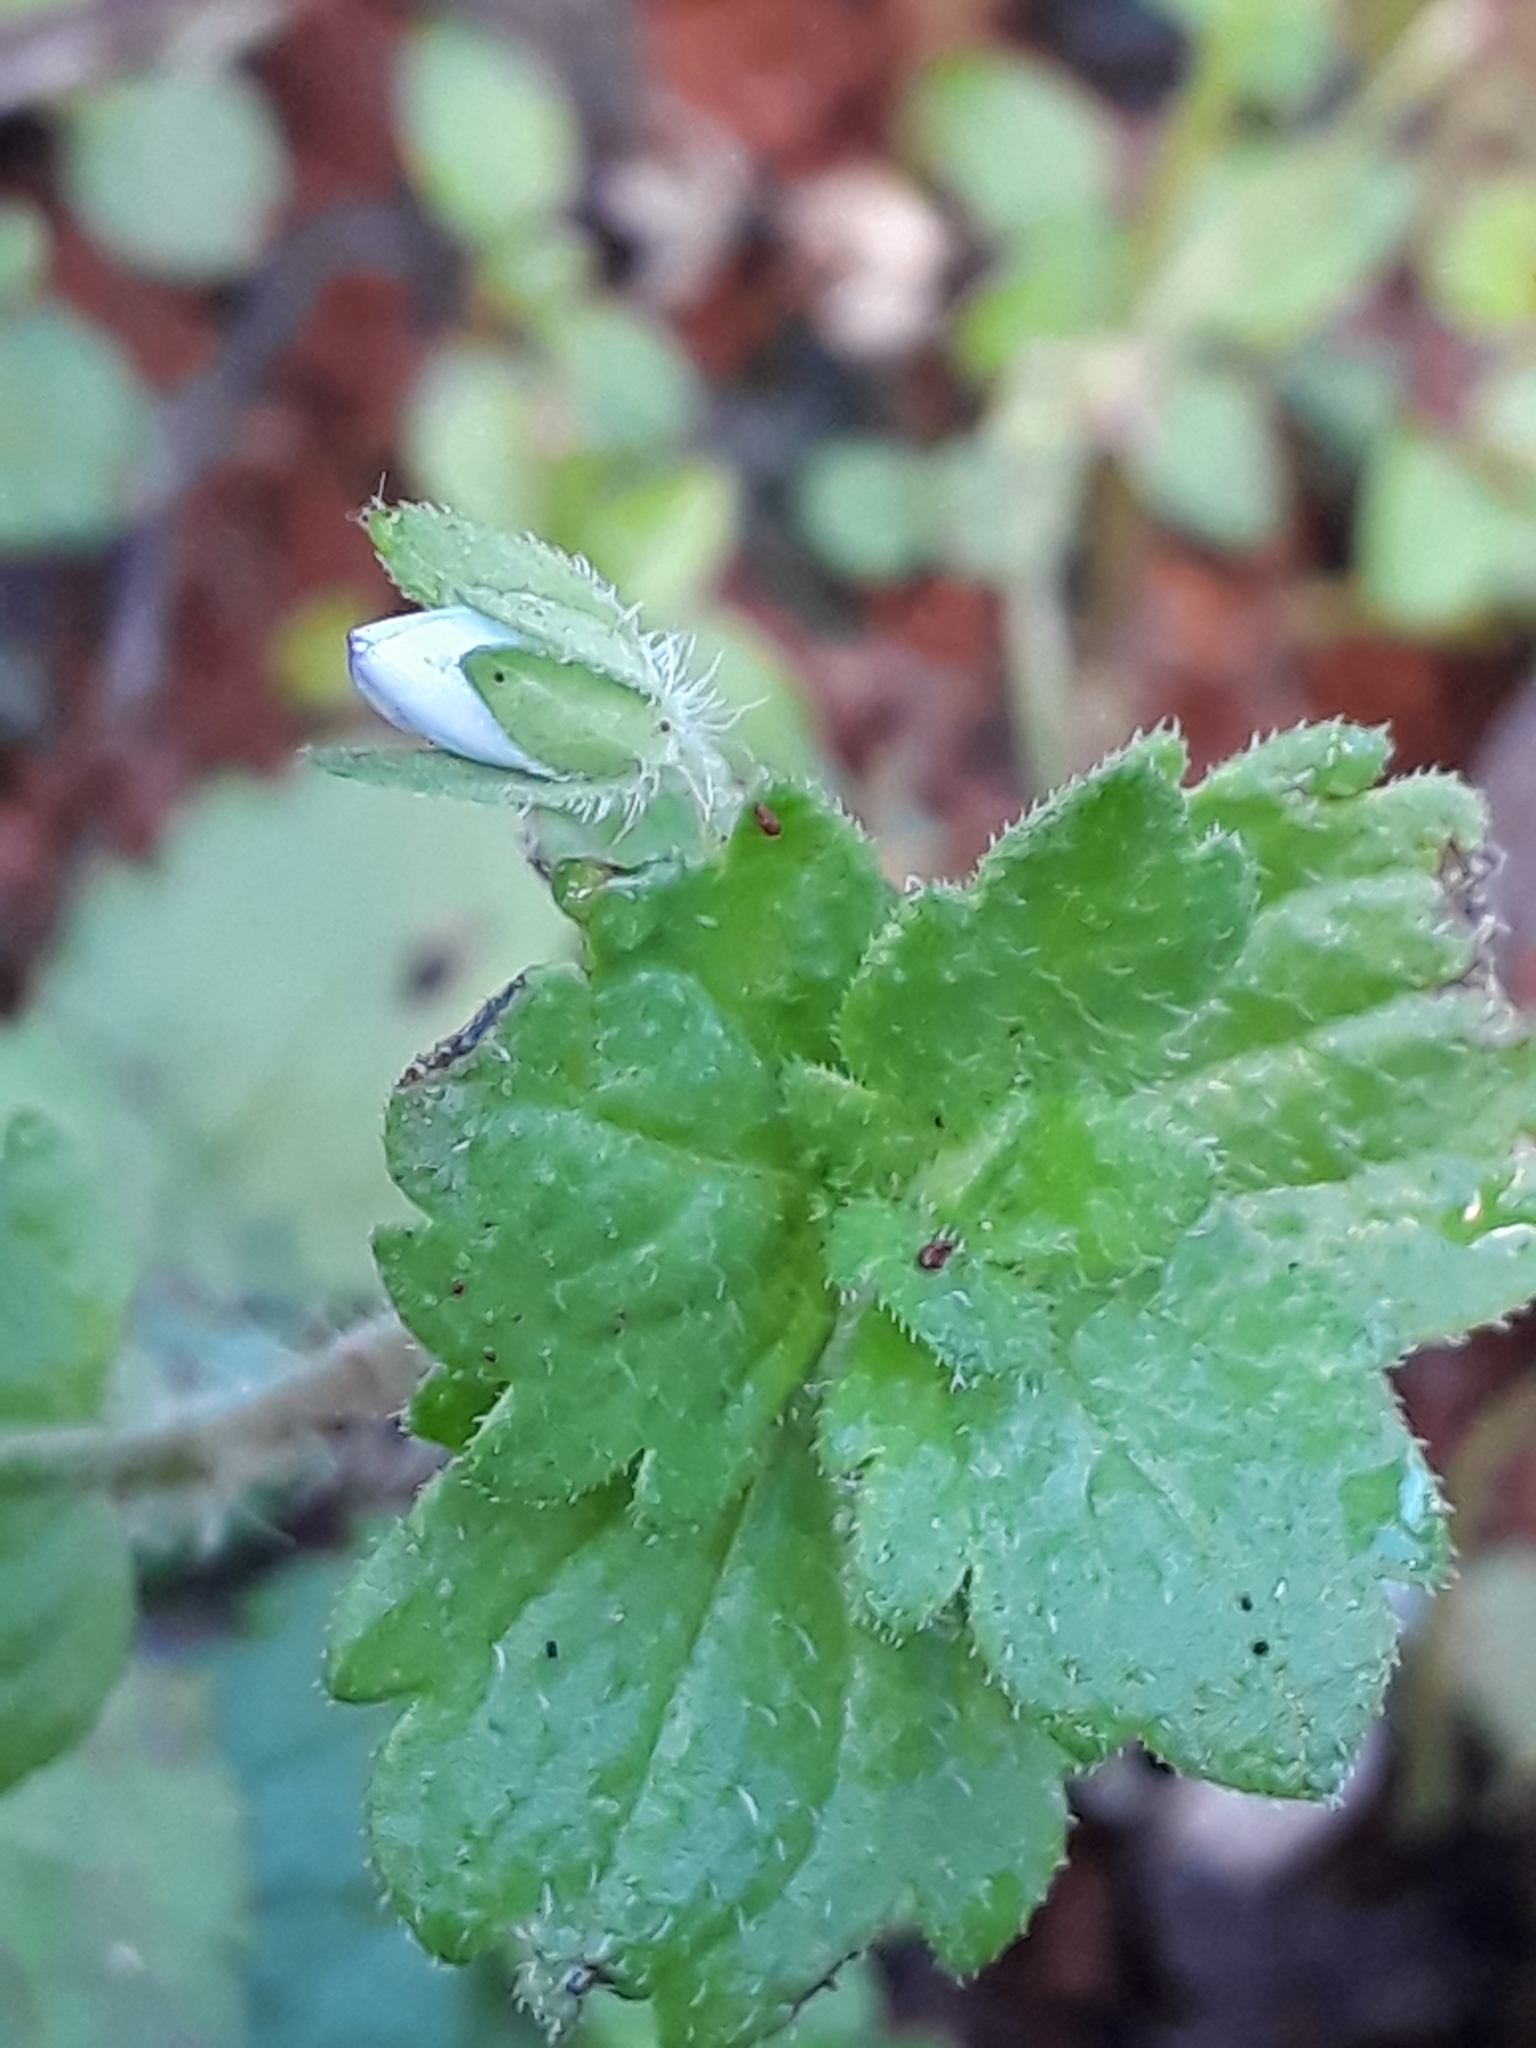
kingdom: Plantae
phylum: Tracheophyta
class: Magnoliopsida
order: Lamiales
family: Plantaginaceae
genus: Veronica
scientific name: Veronica persica
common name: Common field-speedwell
